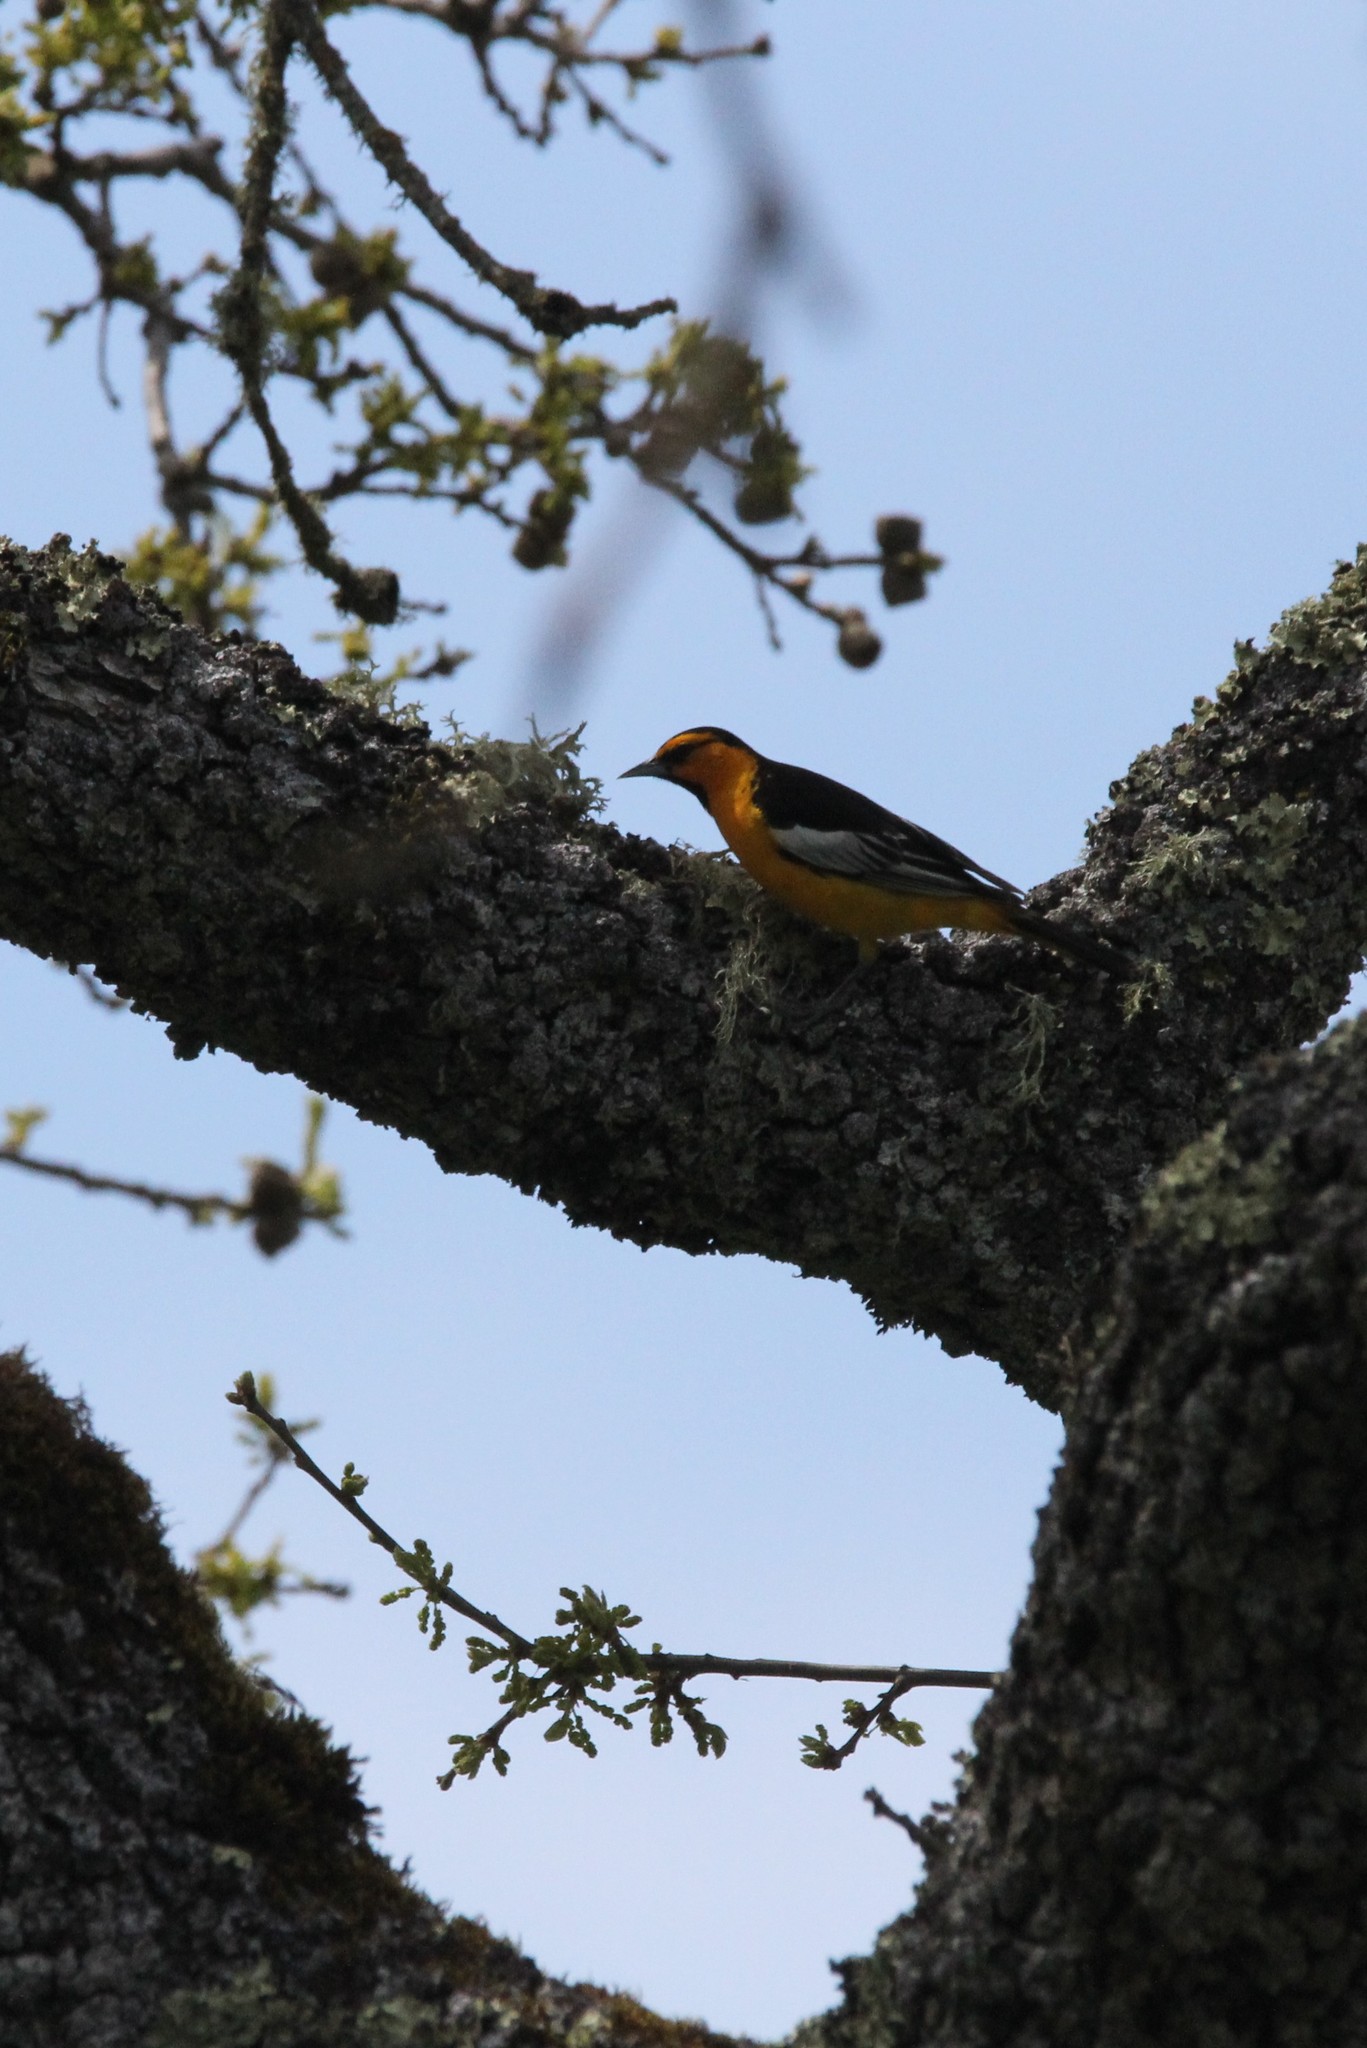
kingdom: Animalia
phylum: Chordata
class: Aves
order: Passeriformes
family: Icteridae
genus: Icterus
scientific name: Icterus bullockii
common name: Bullock's oriole
